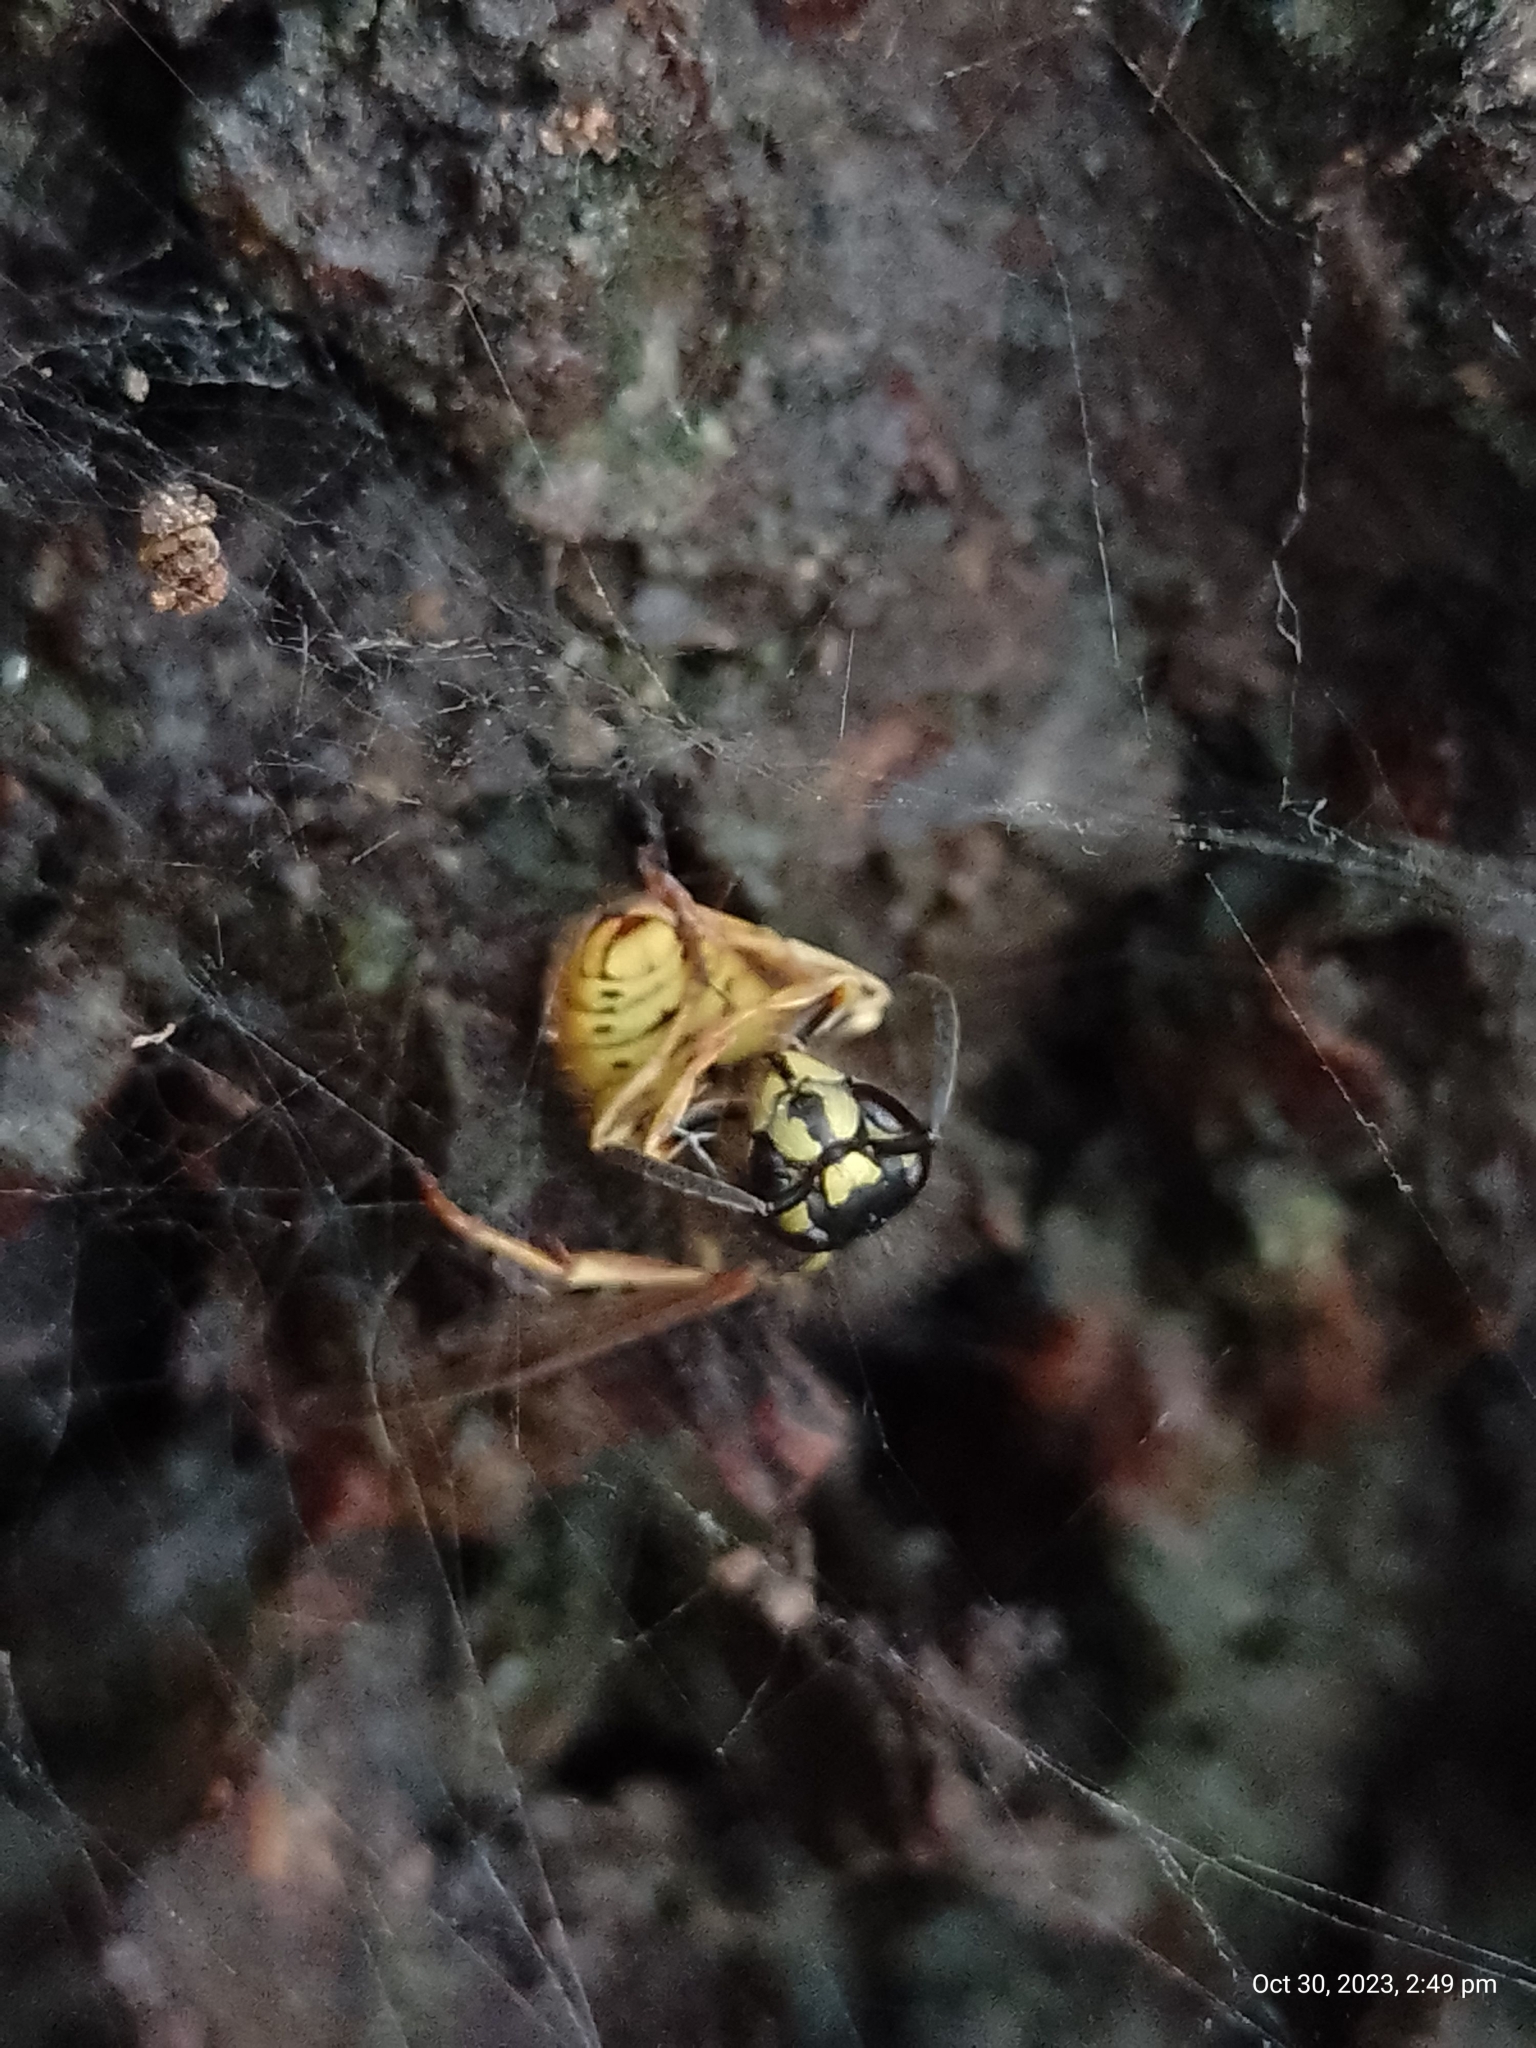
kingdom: Animalia
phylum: Arthropoda
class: Insecta
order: Hymenoptera
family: Vespidae
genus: Vespula
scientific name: Vespula vulgaris
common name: Common wasp
